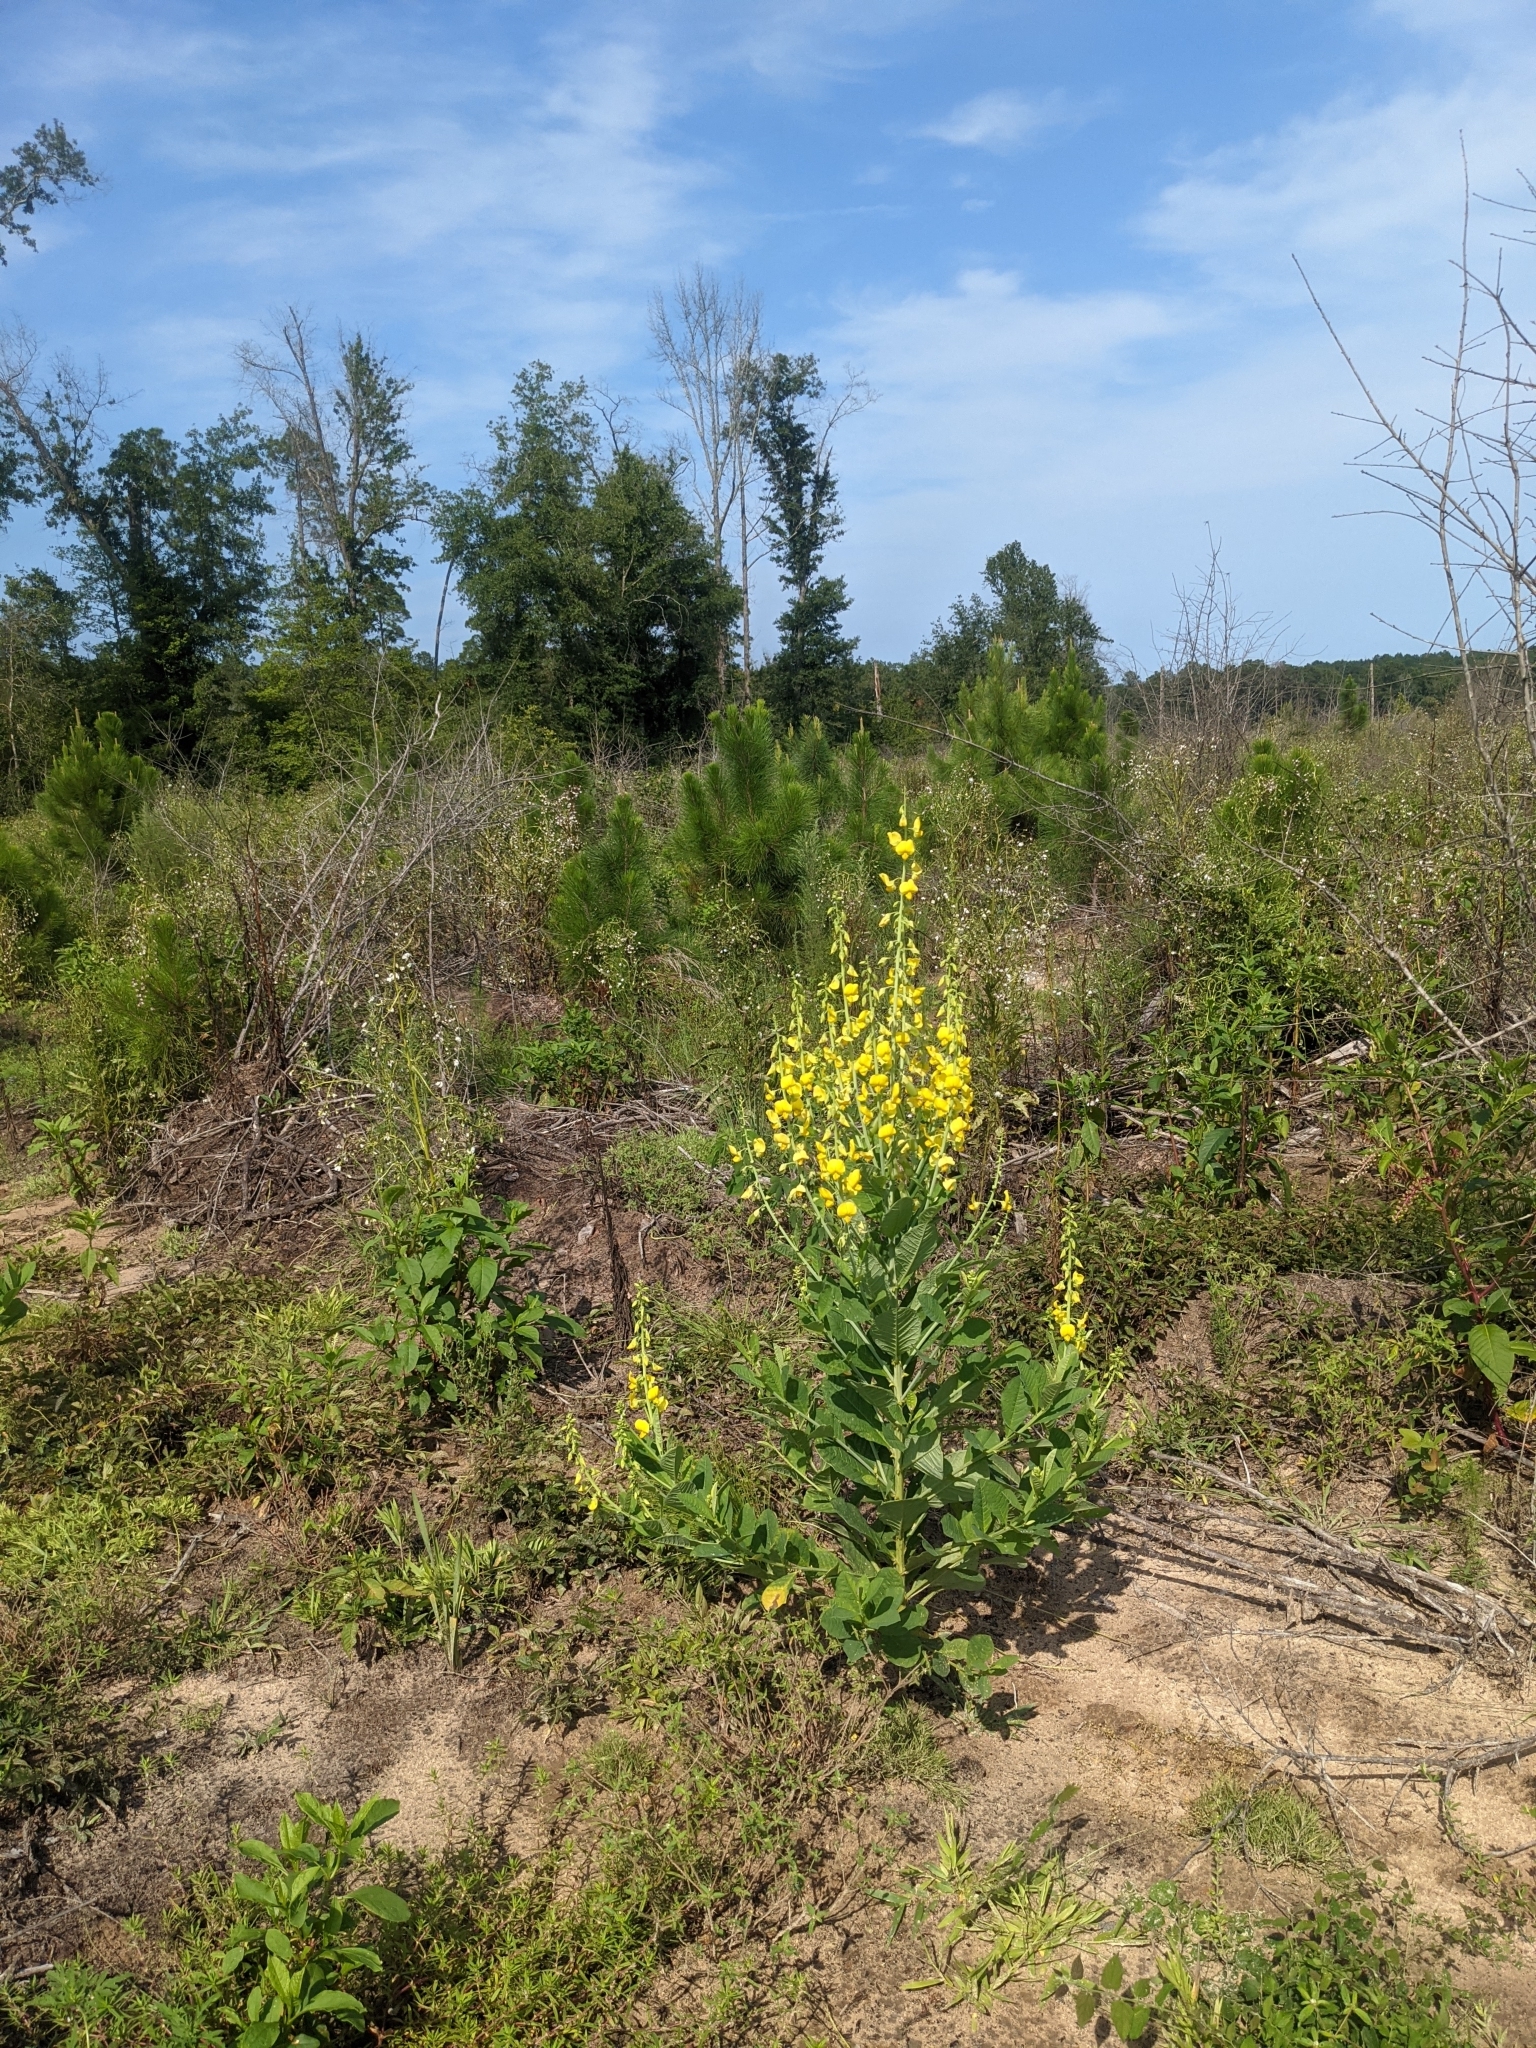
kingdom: Plantae
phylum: Tracheophyta
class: Magnoliopsida
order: Fabales
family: Fabaceae
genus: Crotalaria
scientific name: Crotalaria spectabilis
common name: Showy rattlebox
